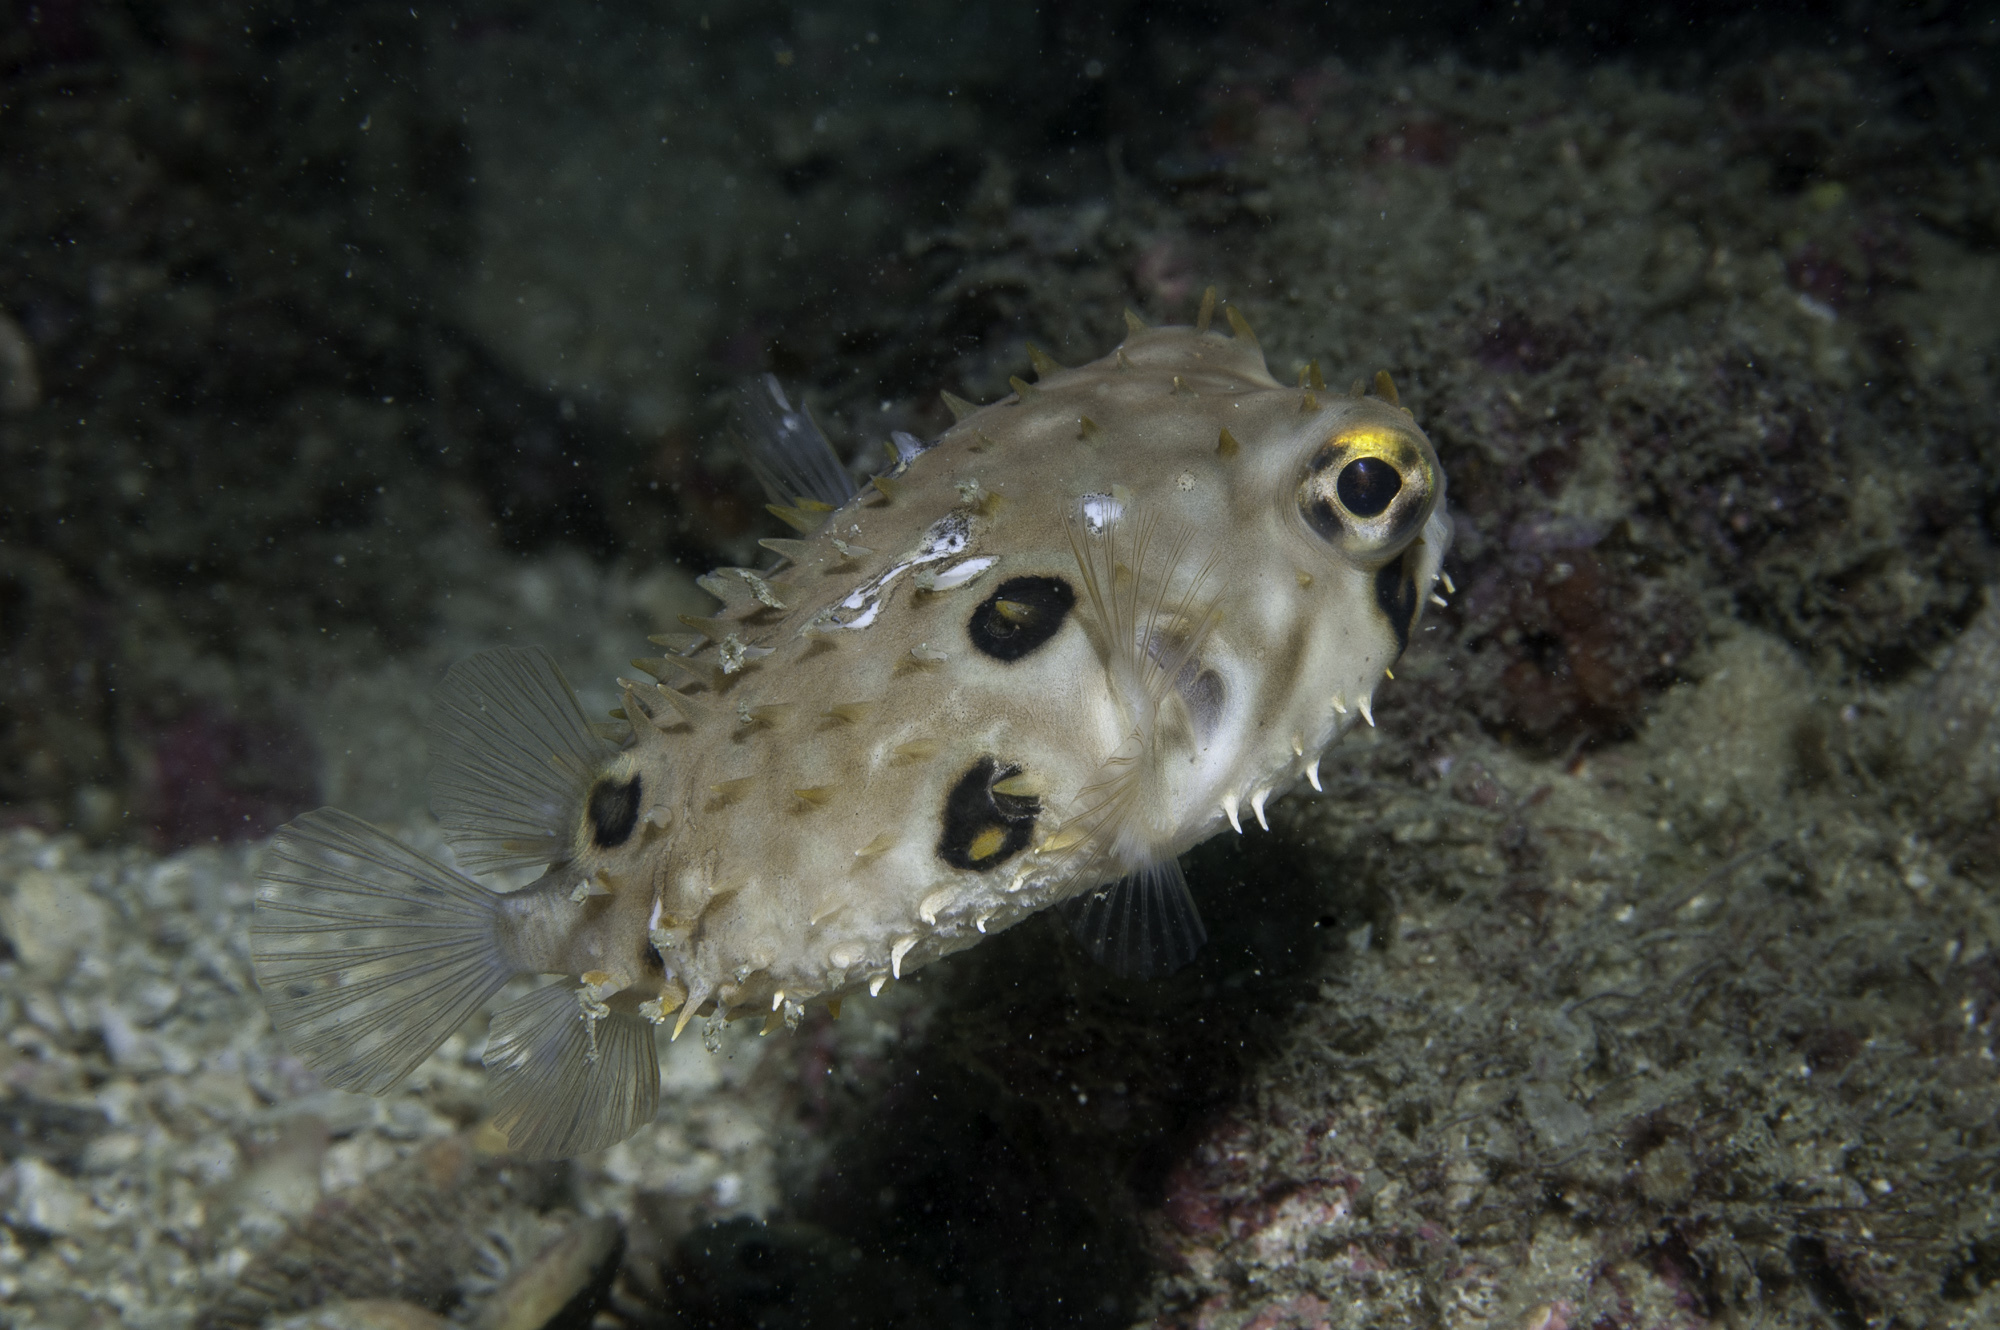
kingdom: Animalia
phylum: Chordata
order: Tetraodontiformes
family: Diodontidae
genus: Chilomycterus
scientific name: Chilomycterus spinosus
